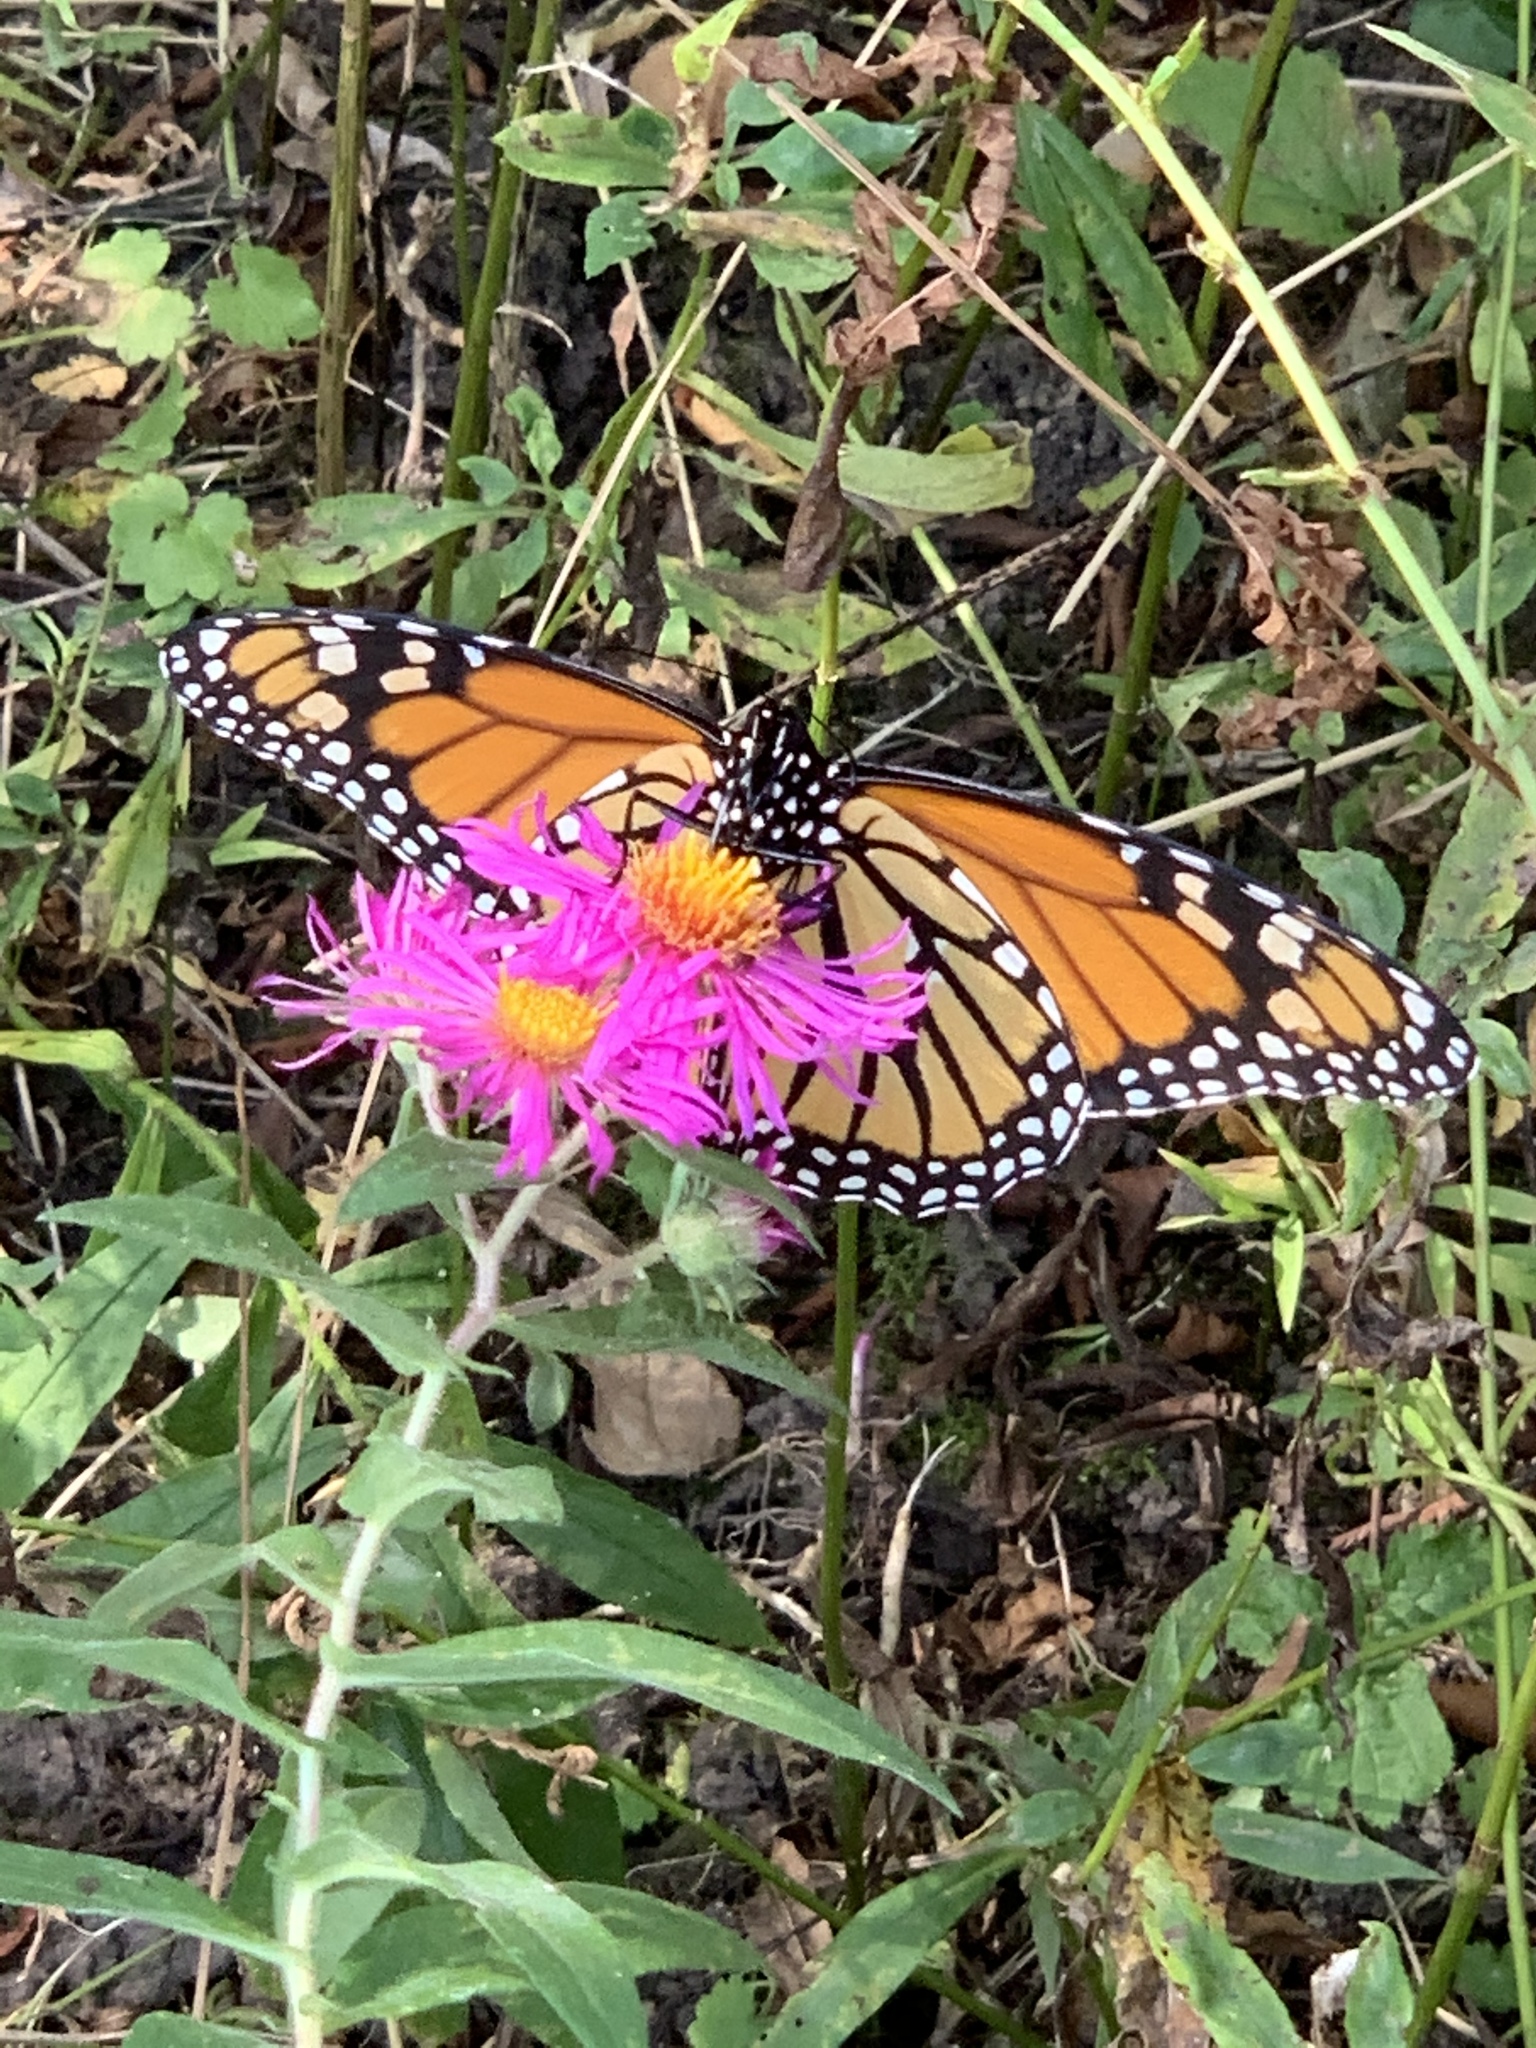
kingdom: Animalia
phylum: Arthropoda
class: Insecta
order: Lepidoptera
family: Nymphalidae
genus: Danaus
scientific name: Danaus plexippus
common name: Monarch
